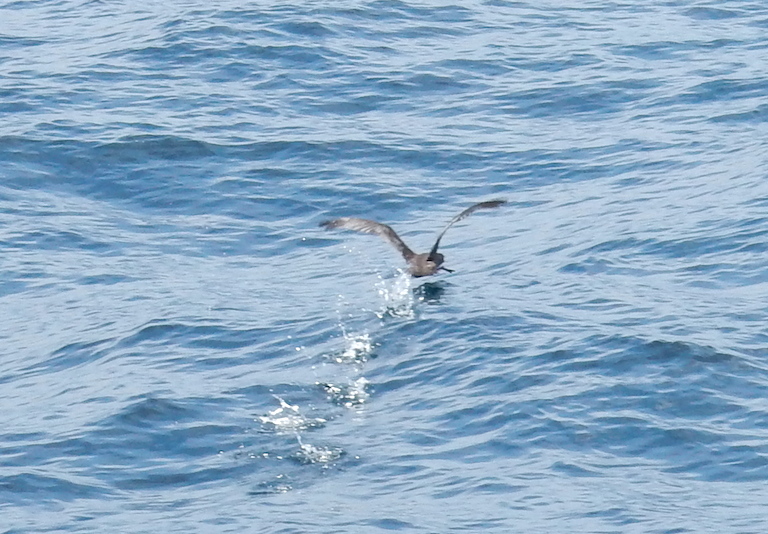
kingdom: Animalia
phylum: Chordata
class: Aves
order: Procellariiformes
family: Procellariidae
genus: Puffinus
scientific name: Puffinus griseus
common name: Sooty shearwater
